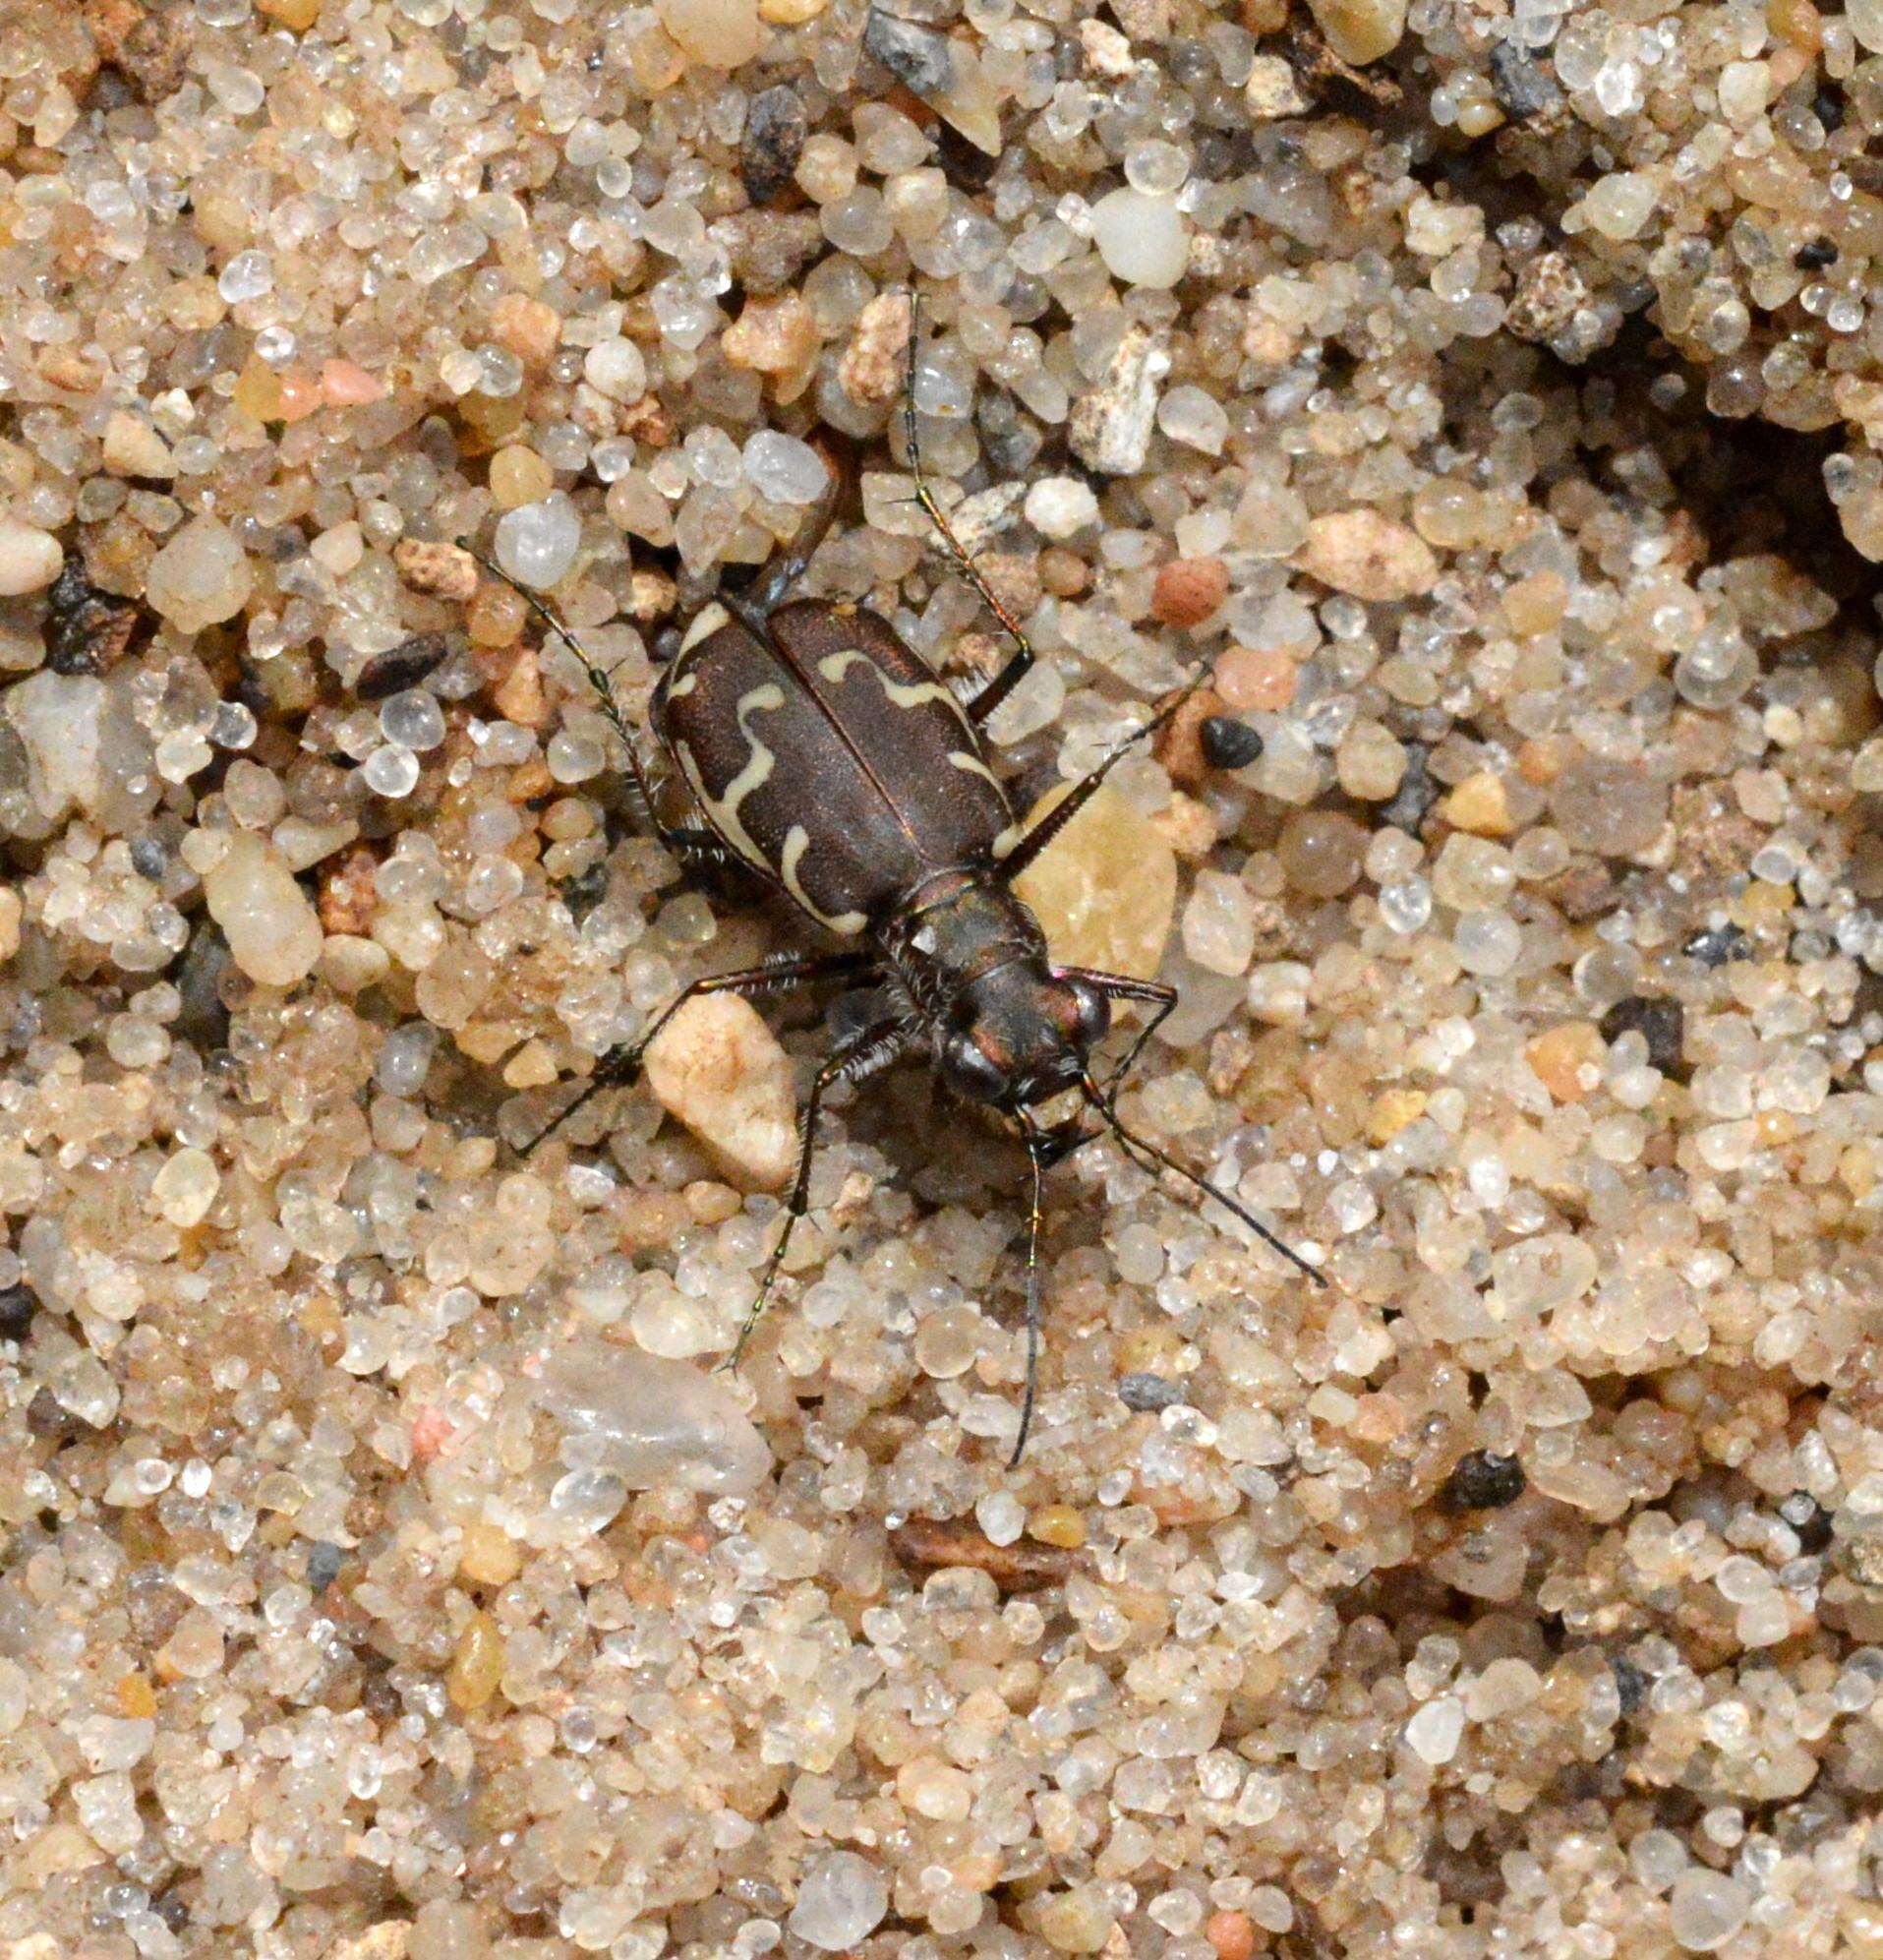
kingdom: Animalia
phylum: Arthropoda
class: Insecta
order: Coleoptera
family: Carabidae
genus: Cicindela
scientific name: Cicindela repanda
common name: Bronzed tiger beetle
